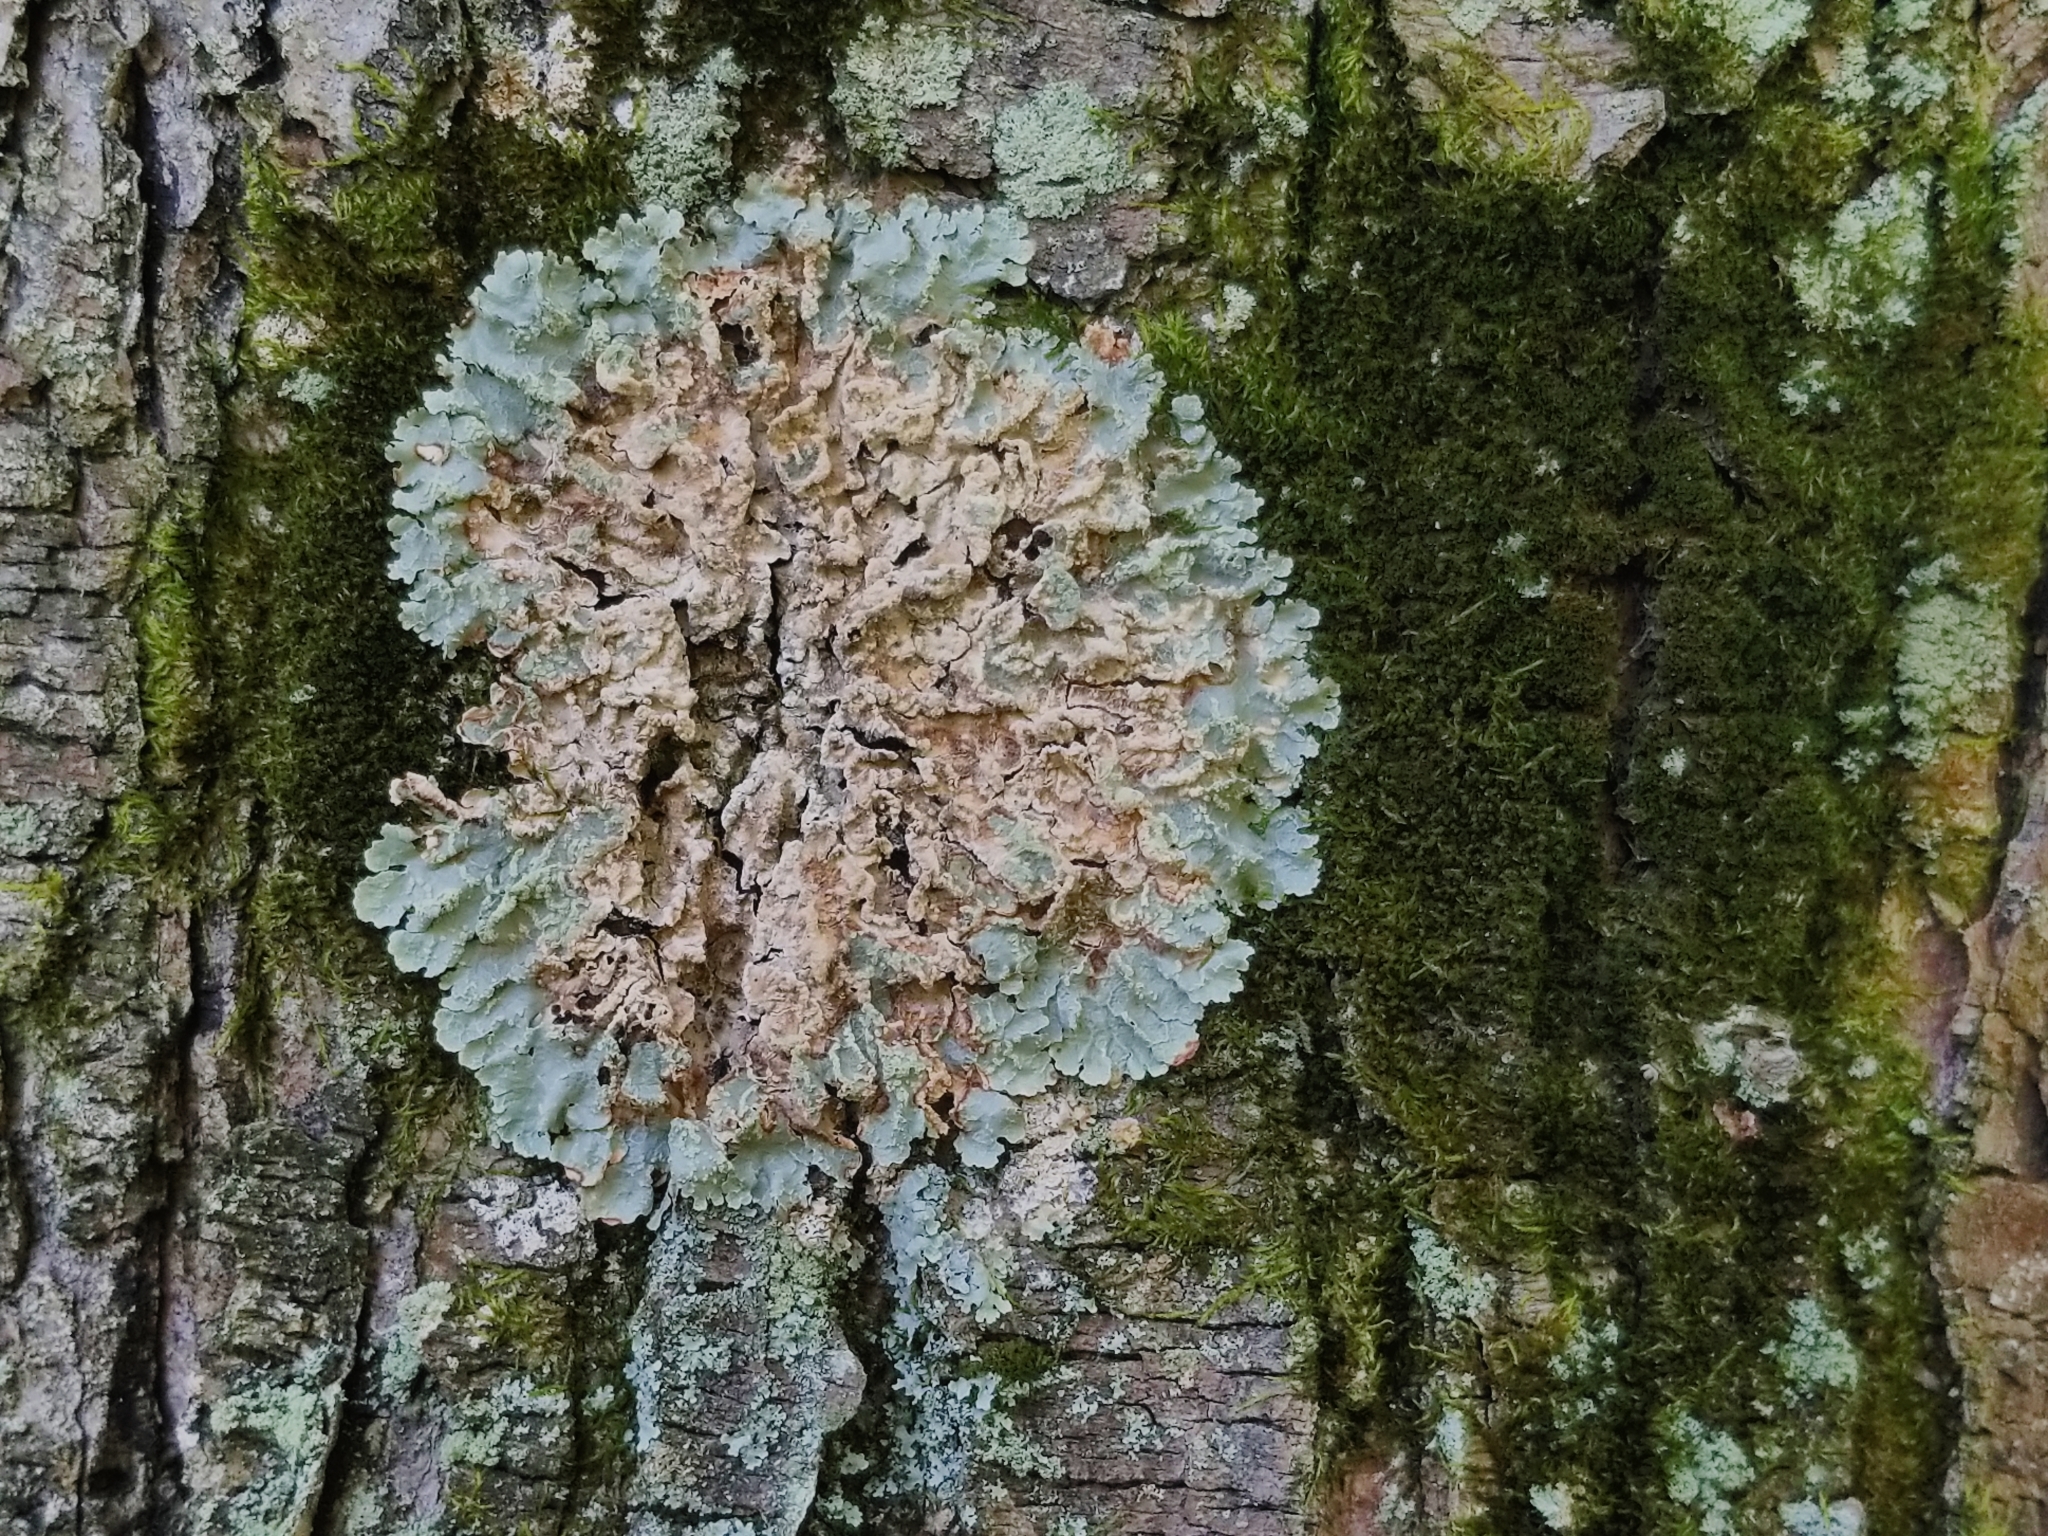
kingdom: Fungi
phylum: Ascomycota
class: Lecanoromycetes
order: Lecanorales
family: Parmeliaceae
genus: Crespoa
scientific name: Crespoa crozalsiana
